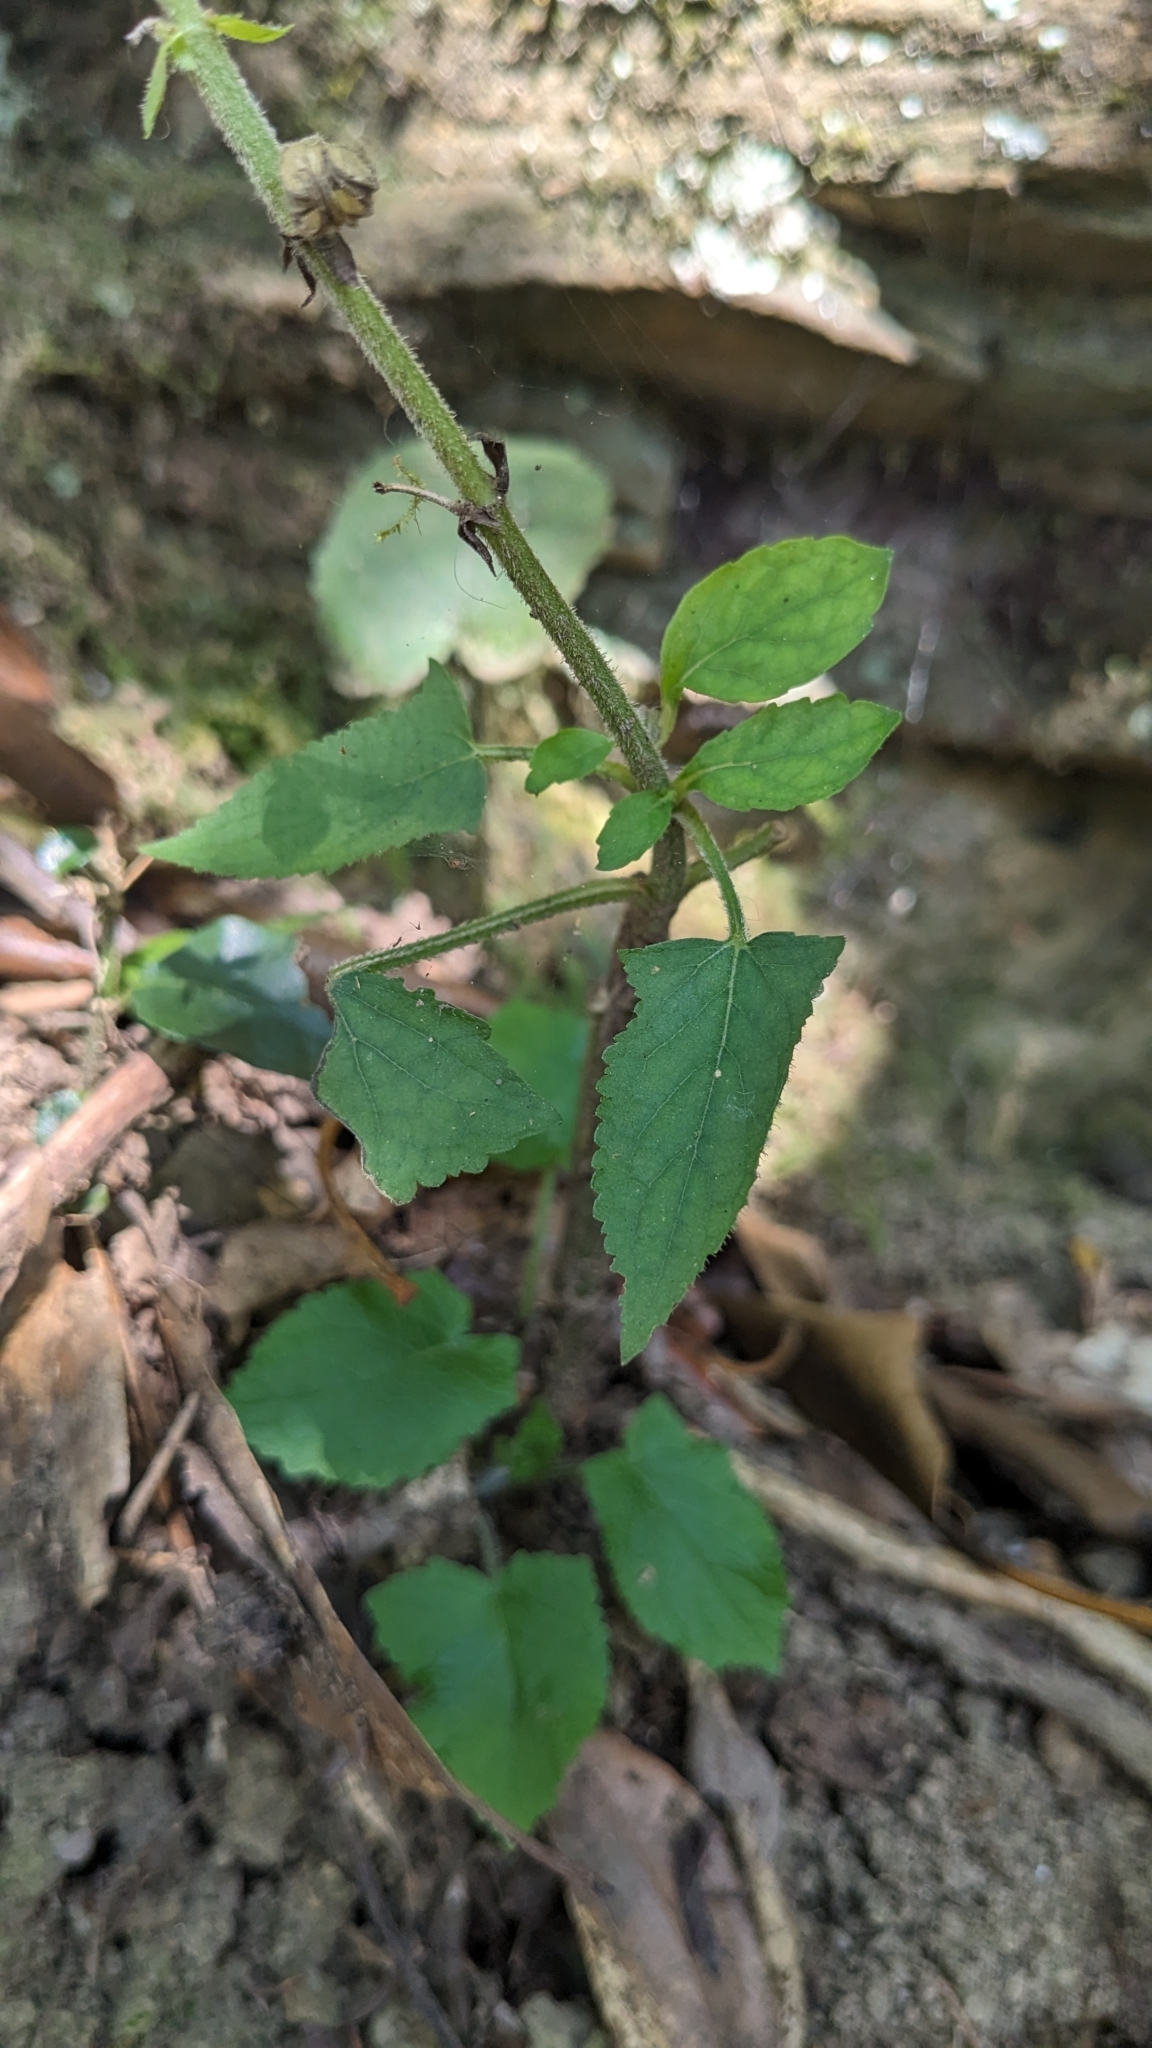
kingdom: Plantae
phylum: Tracheophyta
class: Magnoliopsida
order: Lamiales
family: Lamiaceae
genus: Salvia
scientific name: Salvia nipponica
